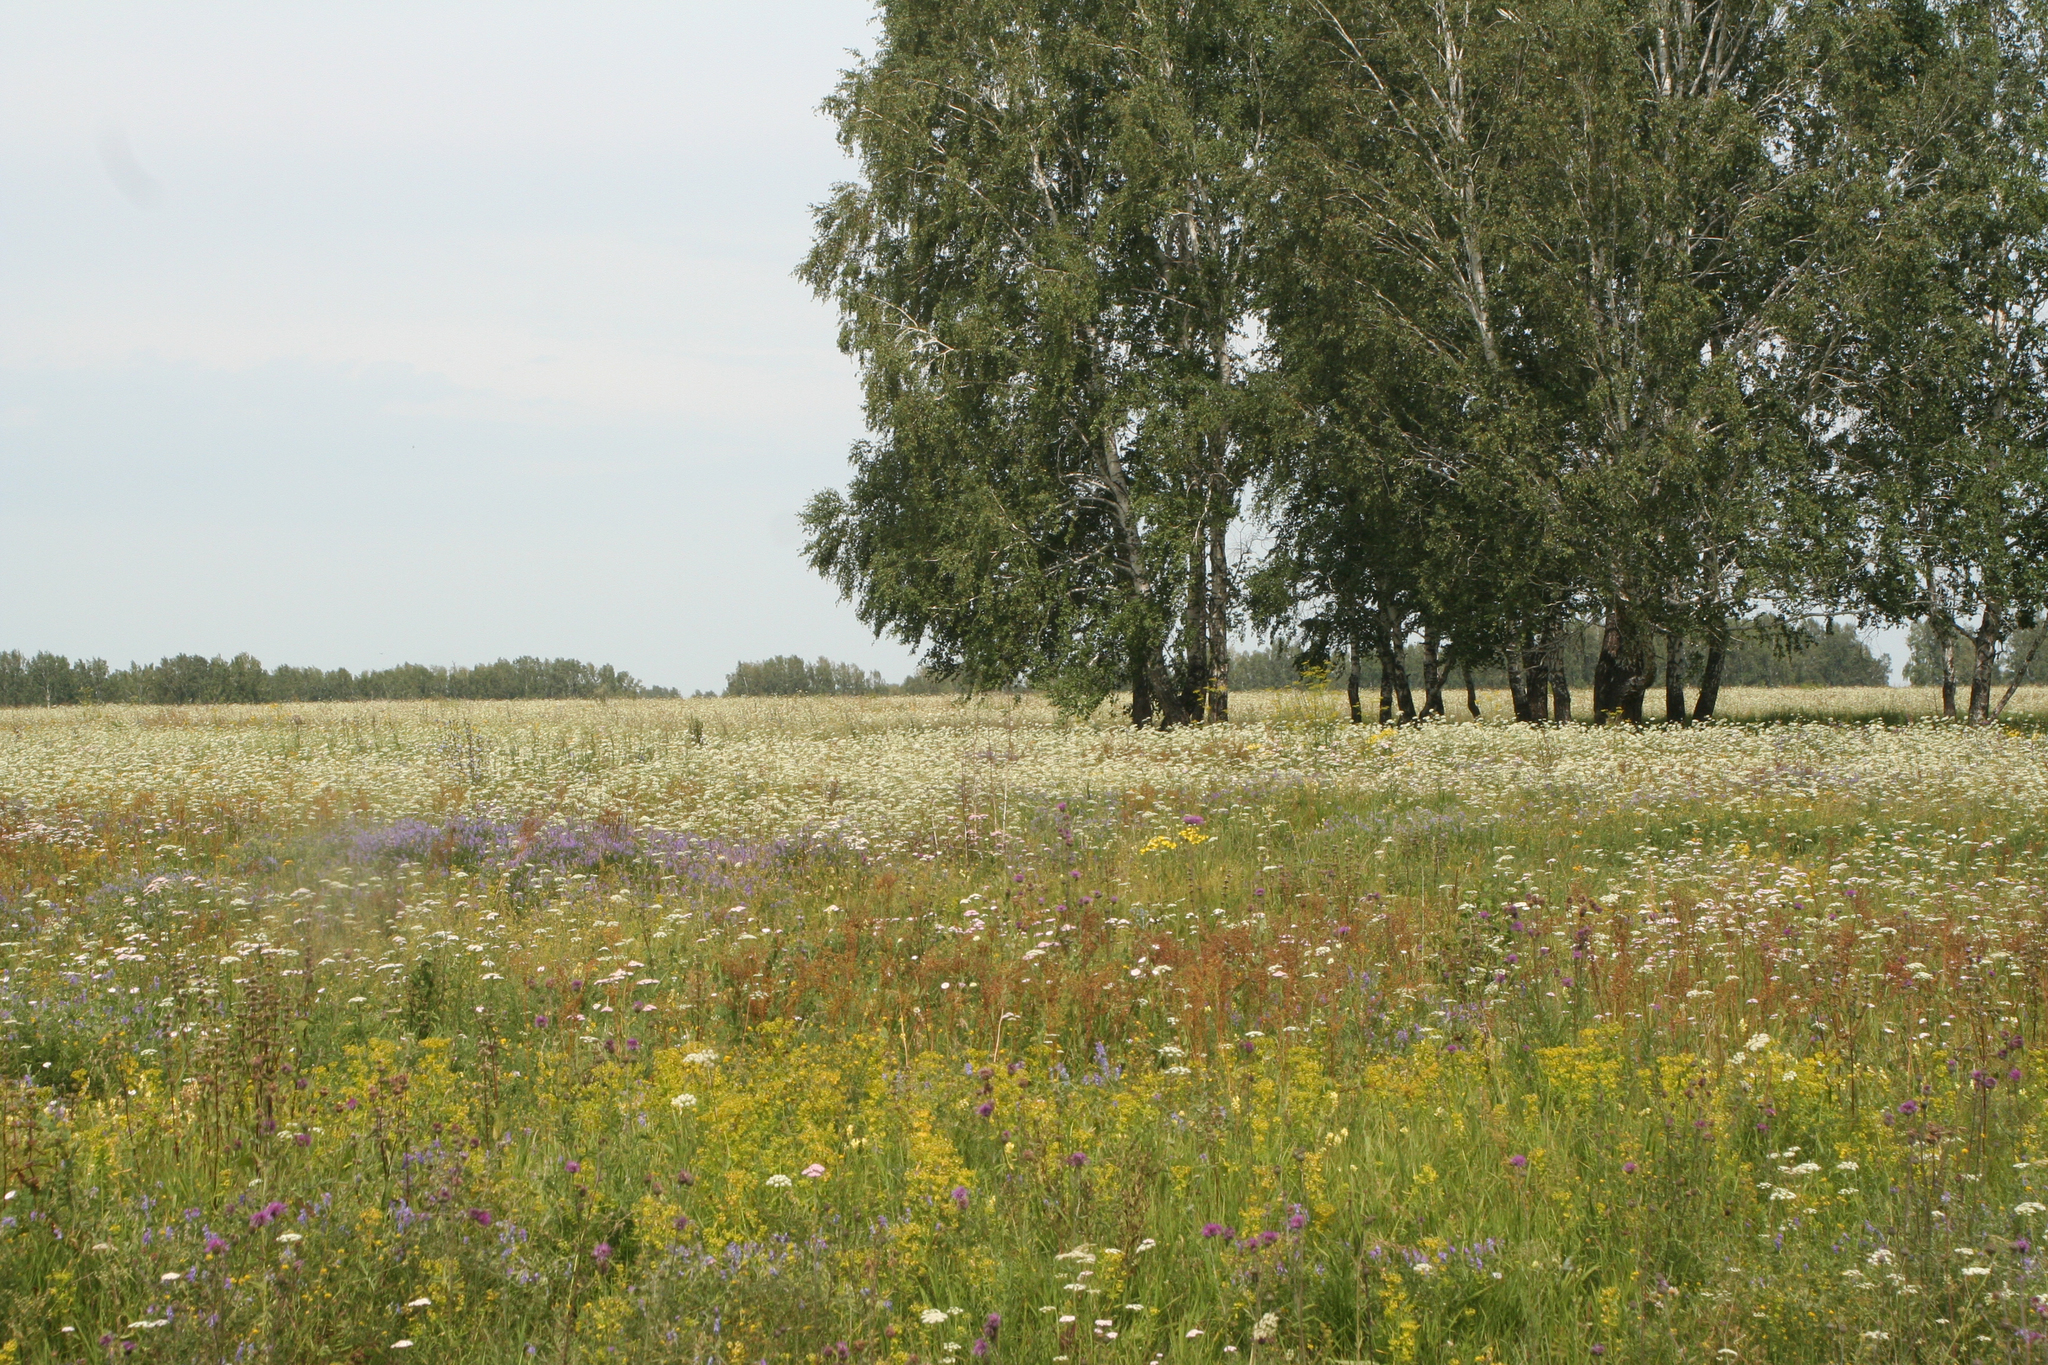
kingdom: Plantae
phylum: Tracheophyta
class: Magnoliopsida
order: Apiales
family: Apiaceae
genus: Pimpinella
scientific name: Pimpinella saxifraga
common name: Burnet-saxifrage
